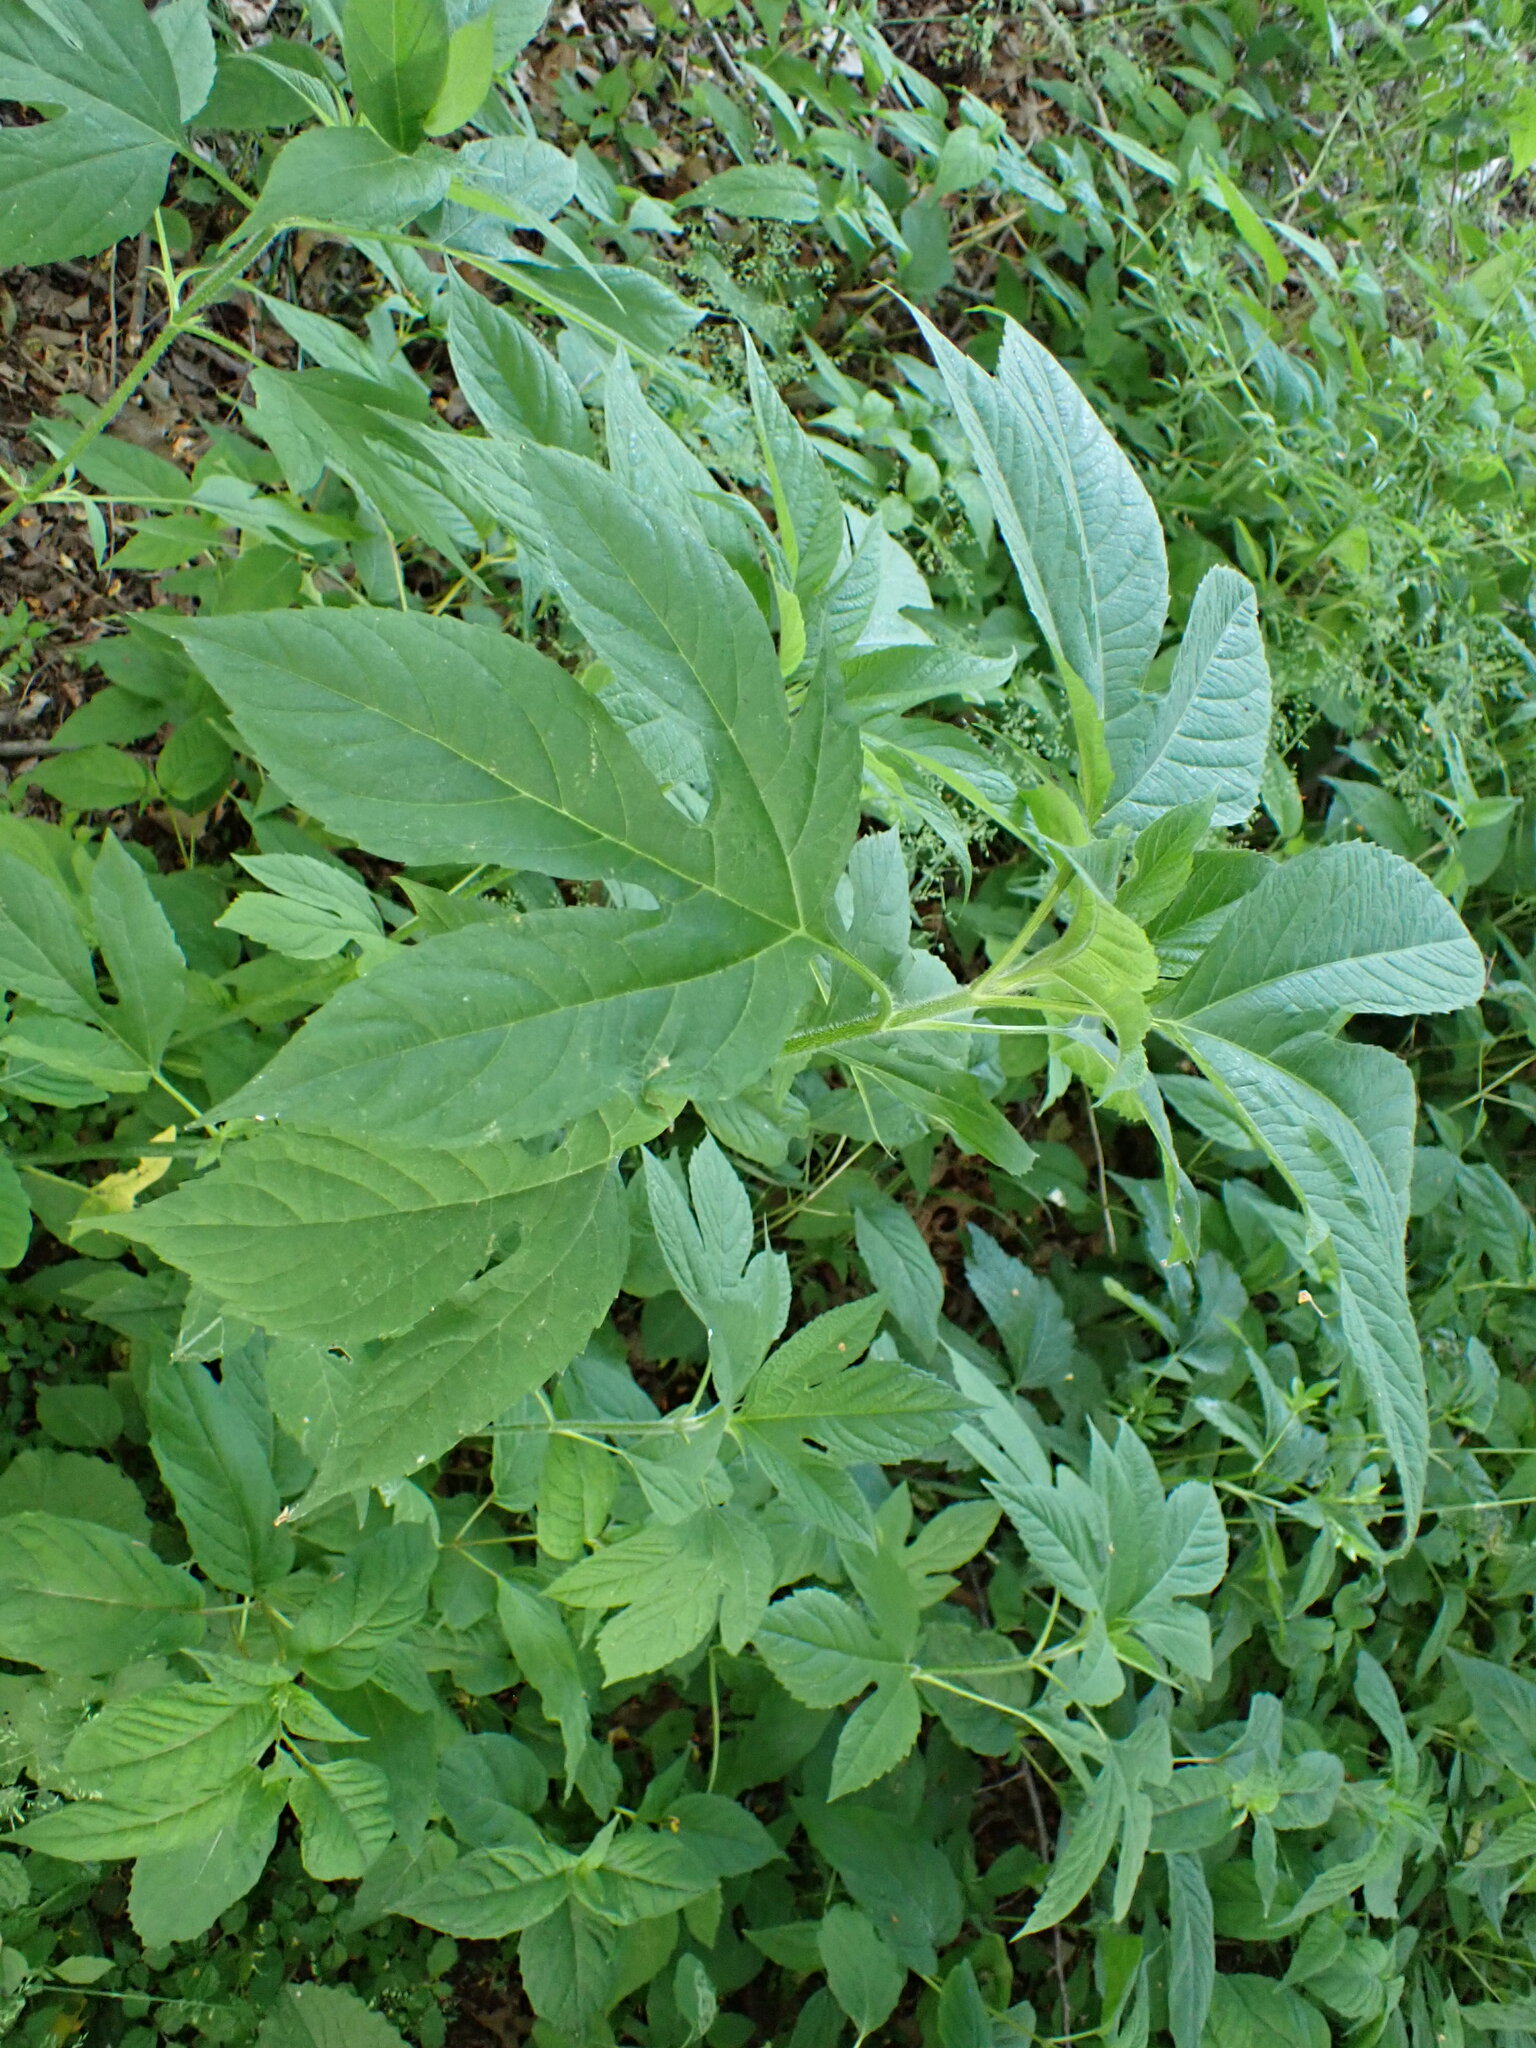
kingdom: Plantae
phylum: Tracheophyta
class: Magnoliopsida
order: Asterales
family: Asteraceae
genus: Ambrosia
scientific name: Ambrosia trifida
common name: Giant ragweed
